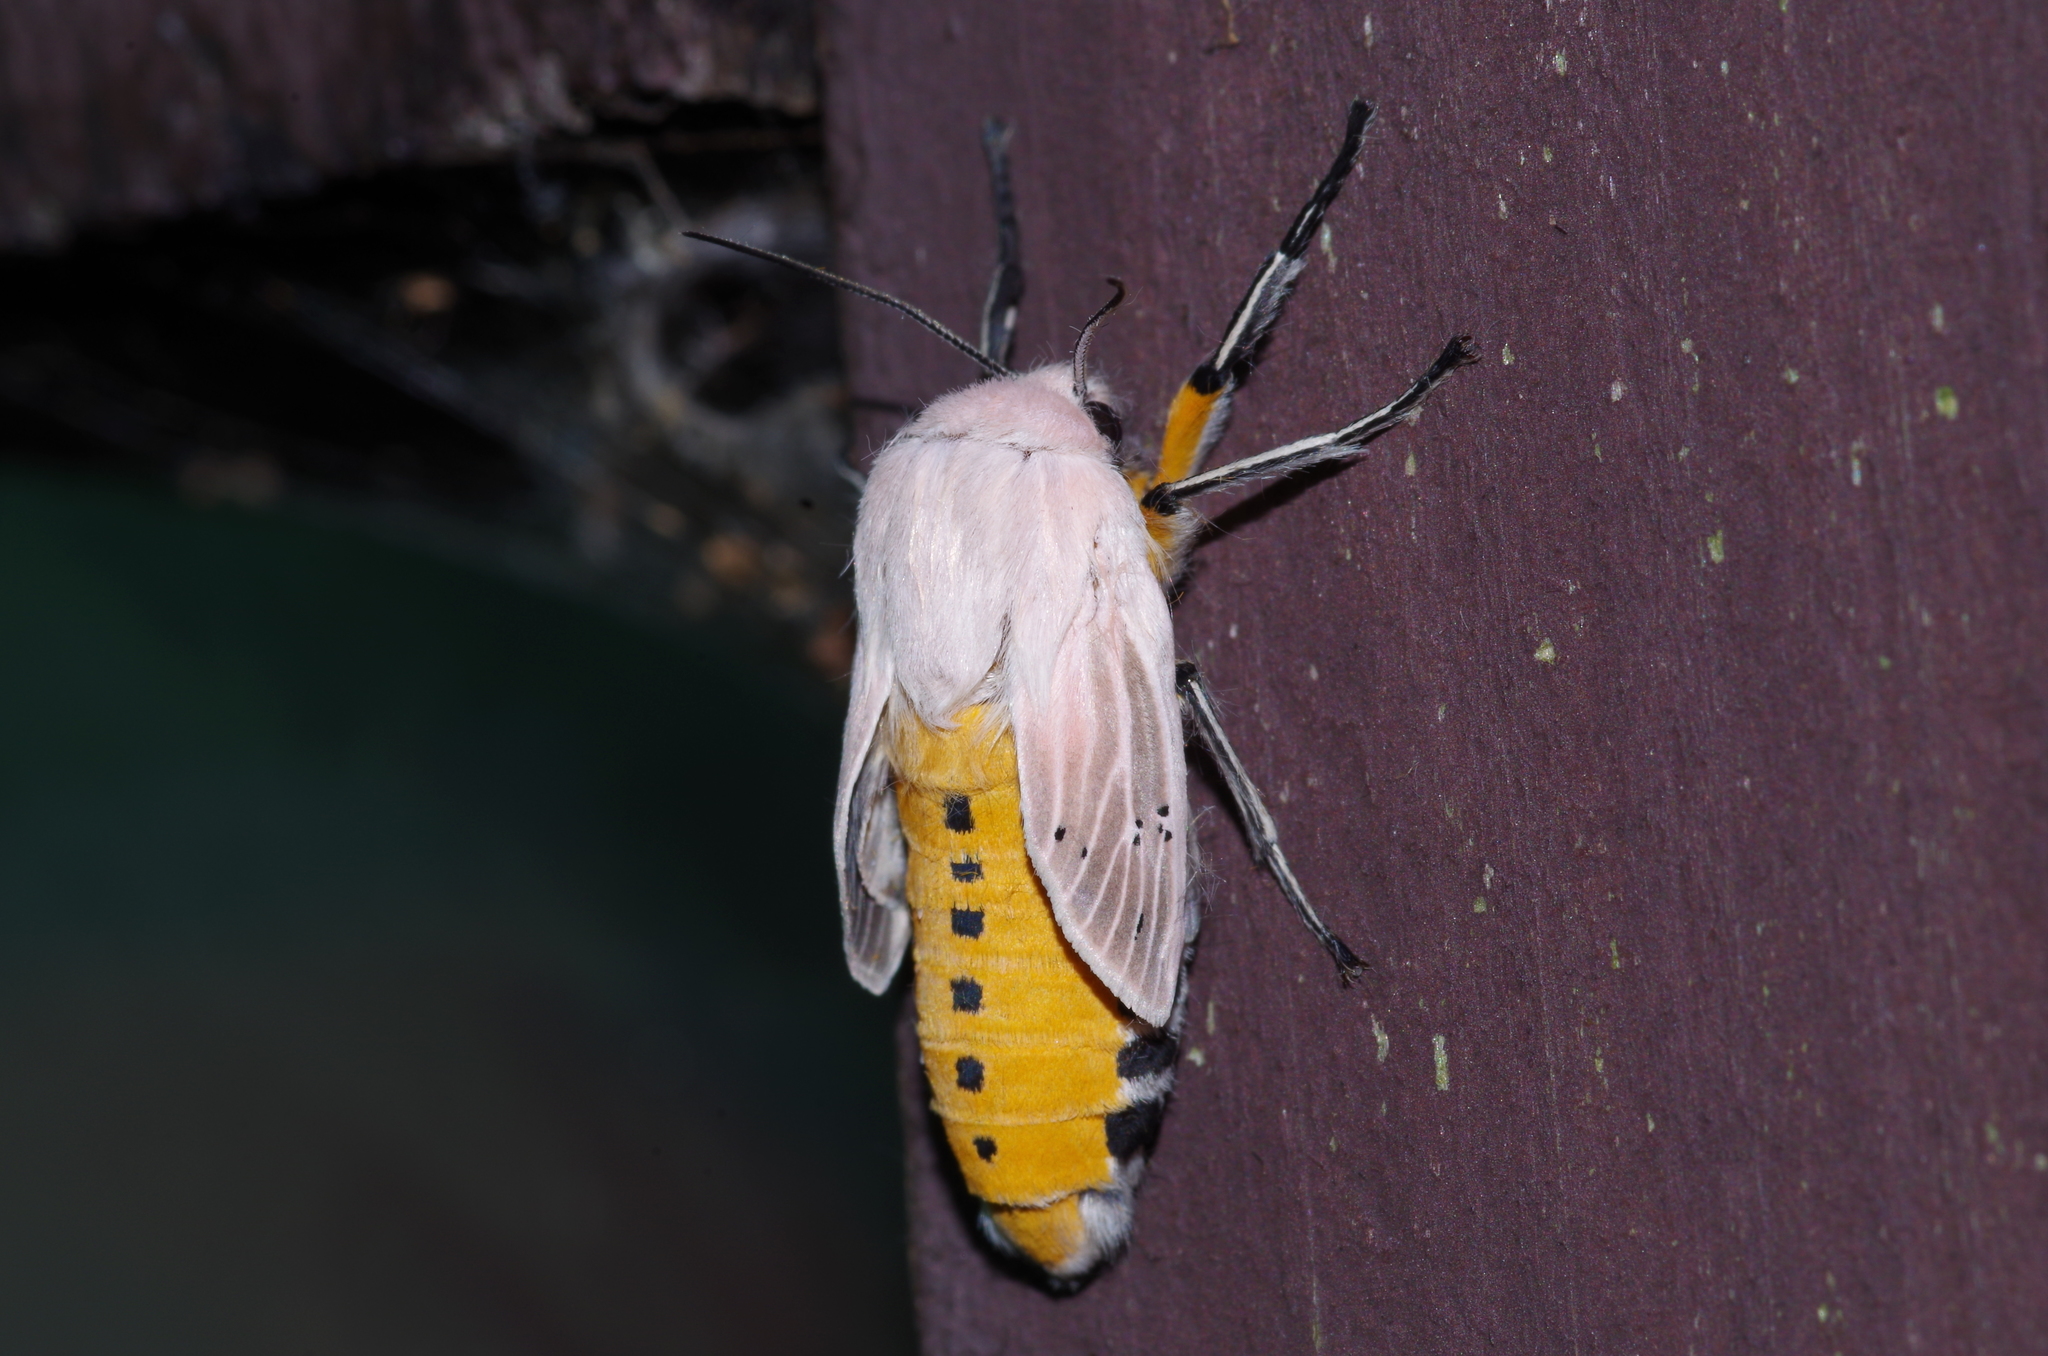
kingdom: Animalia
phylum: Arthropoda
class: Insecta
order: Lepidoptera
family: Erebidae
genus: Creatonotos
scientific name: Creatonotos transiens
